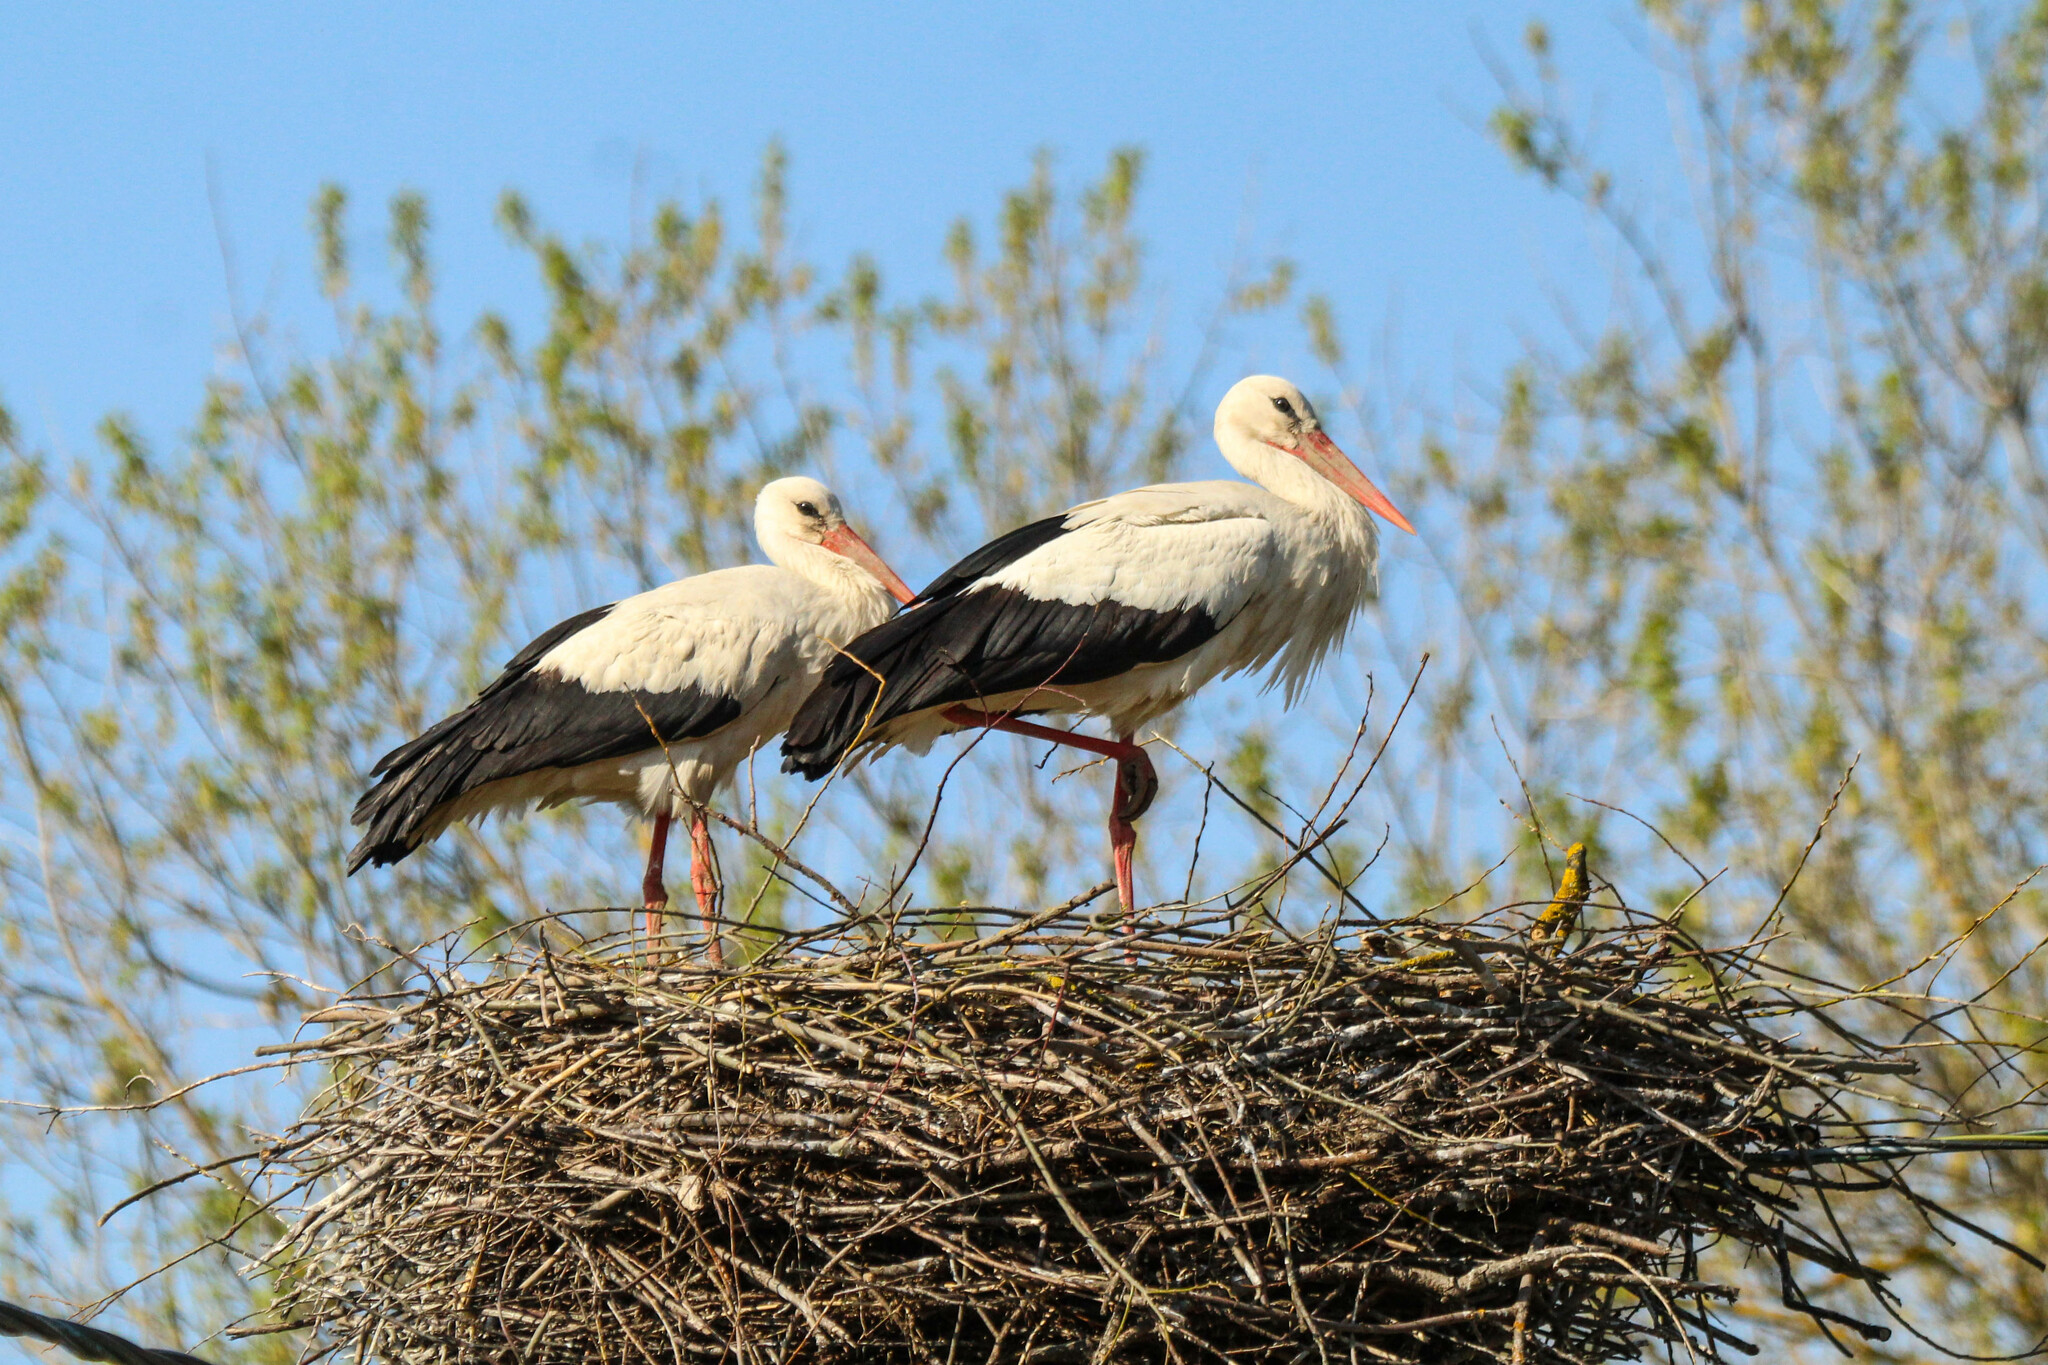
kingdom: Animalia
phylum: Chordata
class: Aves
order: Ciconiiformes
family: Ciconiidae
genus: Ciconia
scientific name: Ciconia ciconia
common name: White stork
